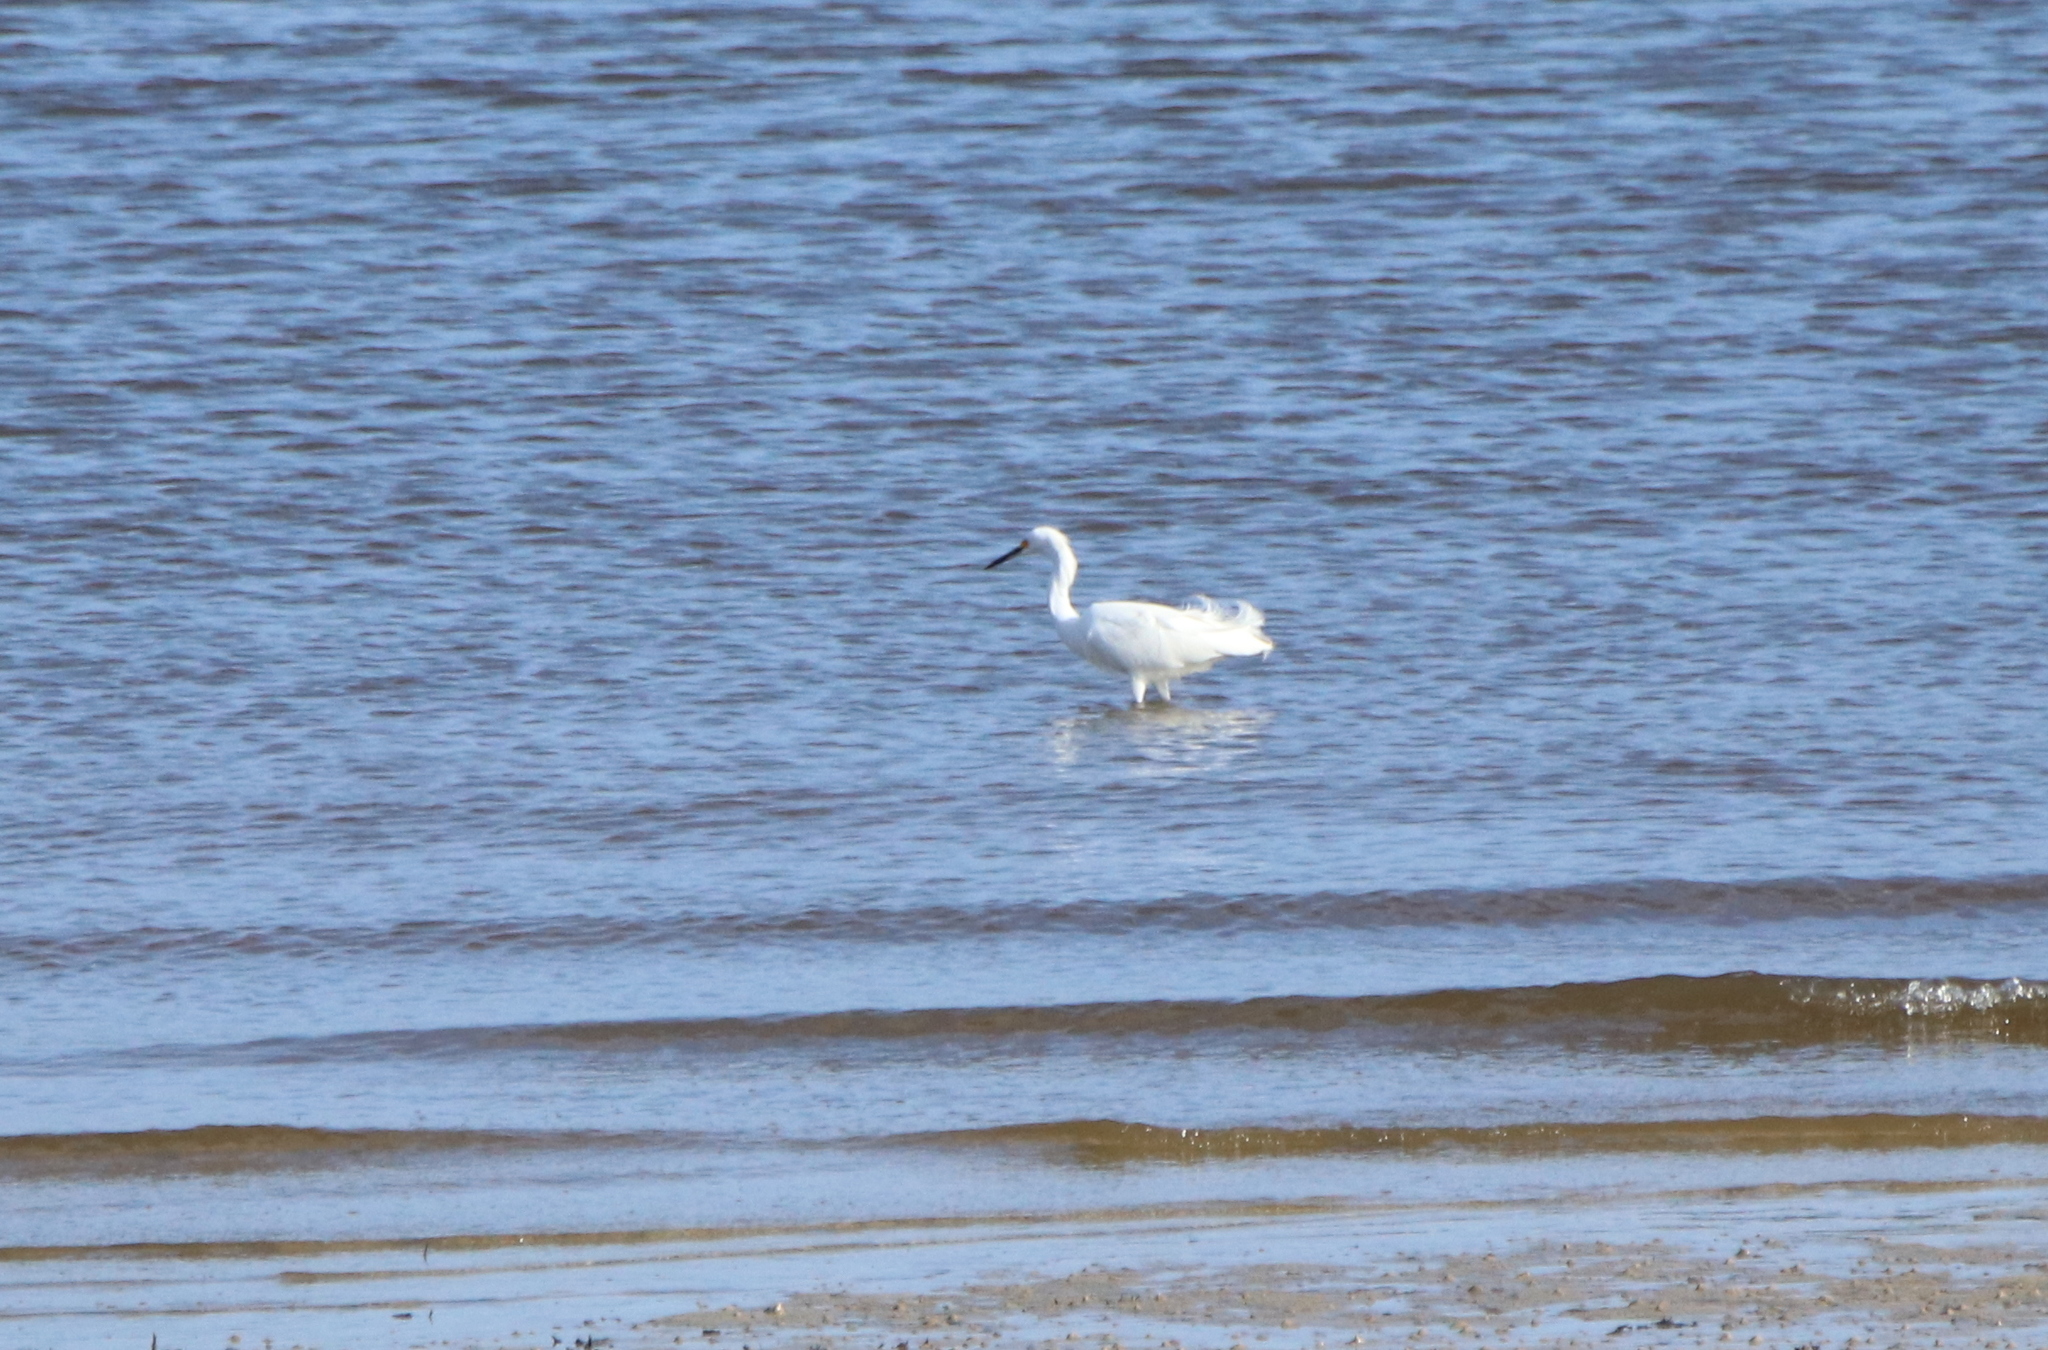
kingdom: Animalia
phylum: Chordata
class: Aves
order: Pelecaniformes
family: Ardeidae
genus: Egretta
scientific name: Egretta thula
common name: Snowy egret
